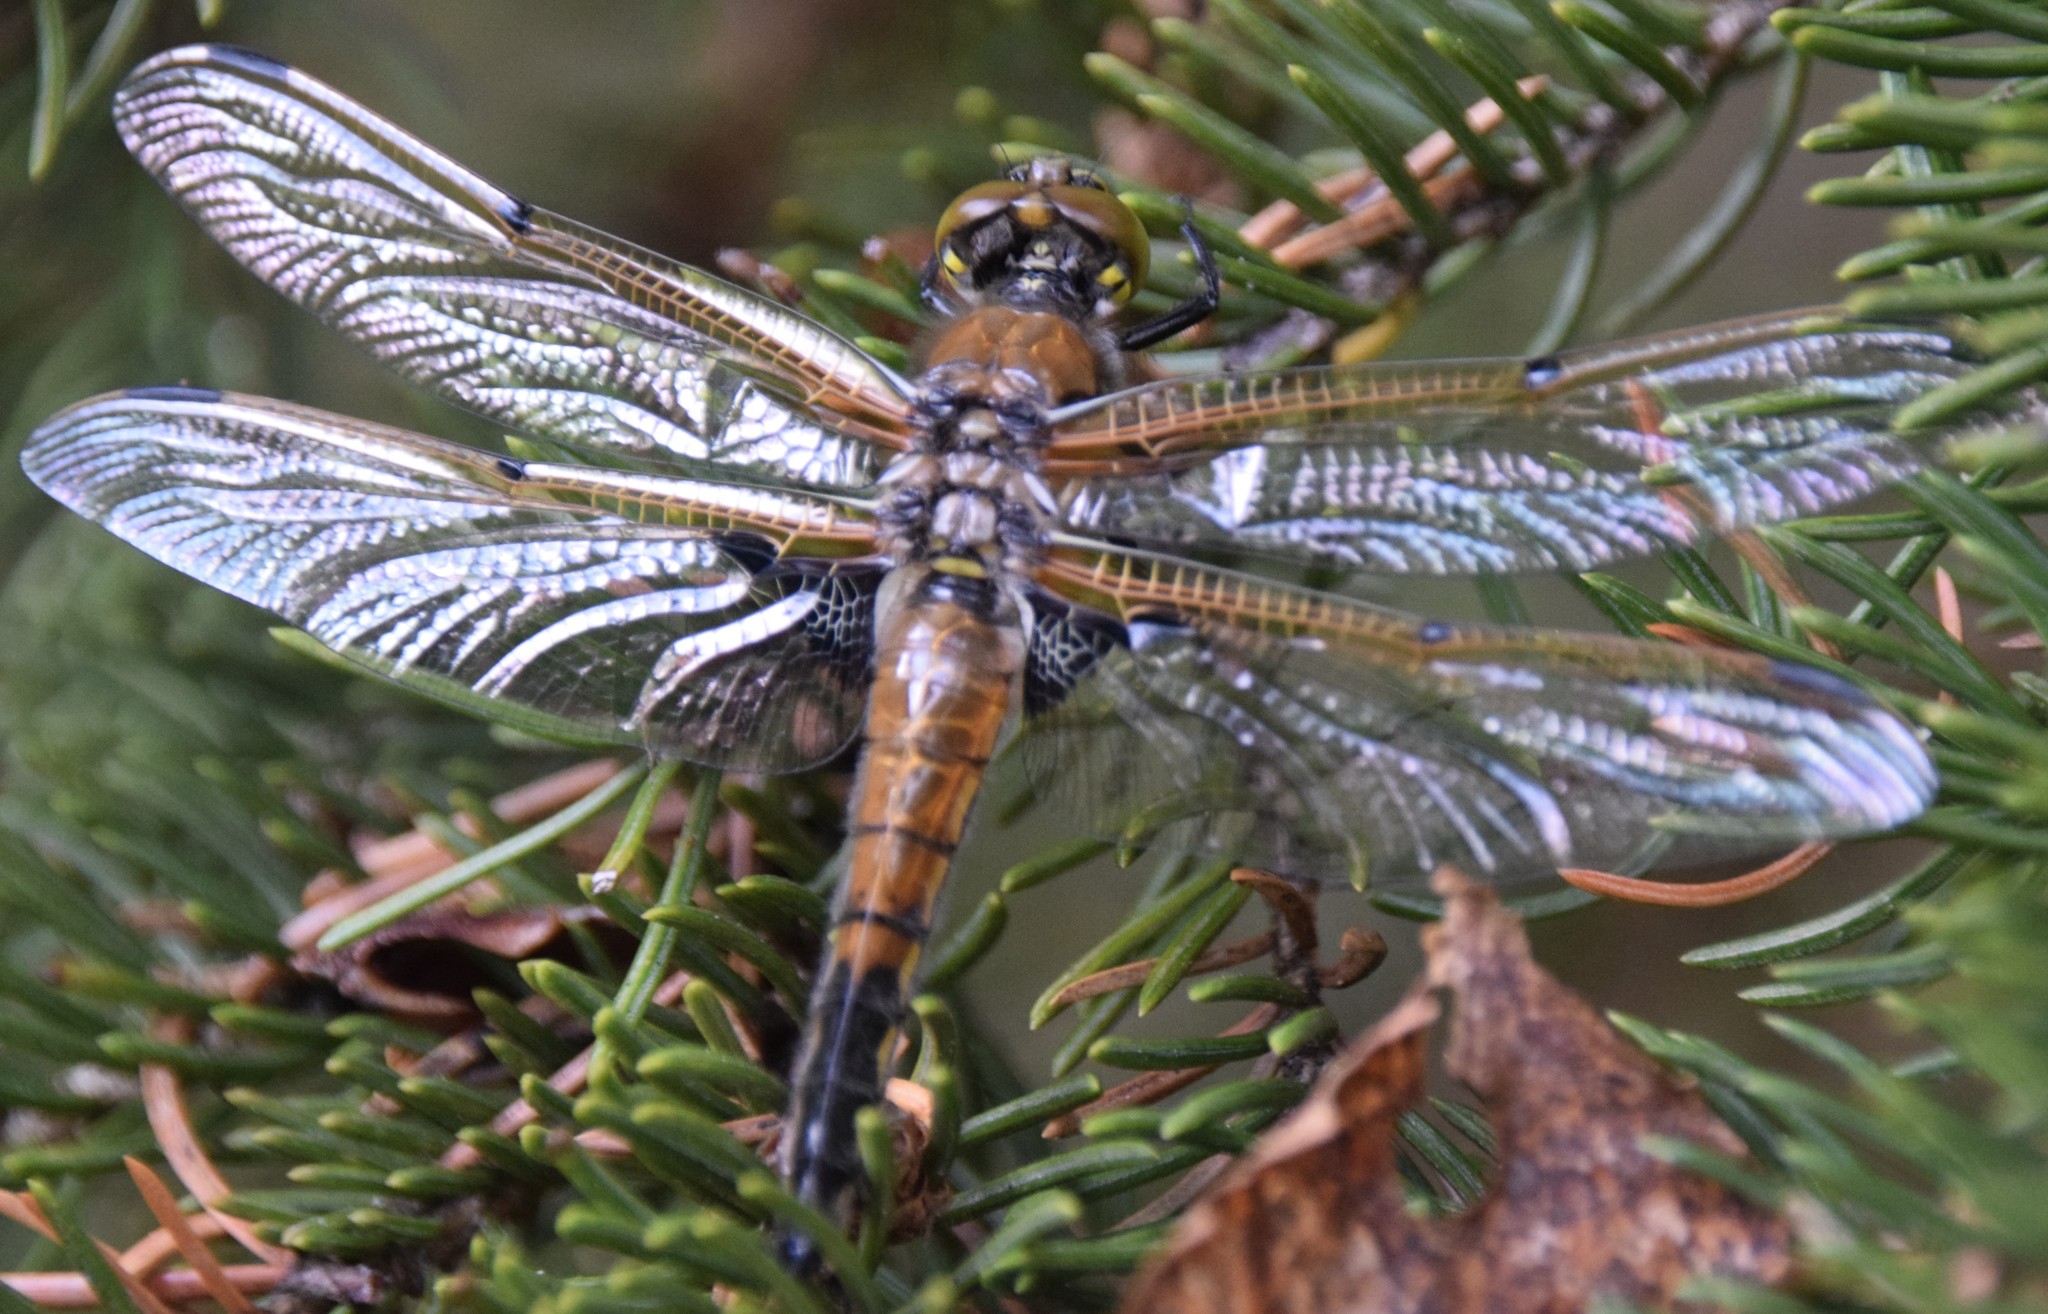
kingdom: Animalia
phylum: Arthropoda
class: Insecta
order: Odonata
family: Libellulidae
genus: Libellula
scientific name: Libellula quadrimaculata
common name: Four-spotted chaser
